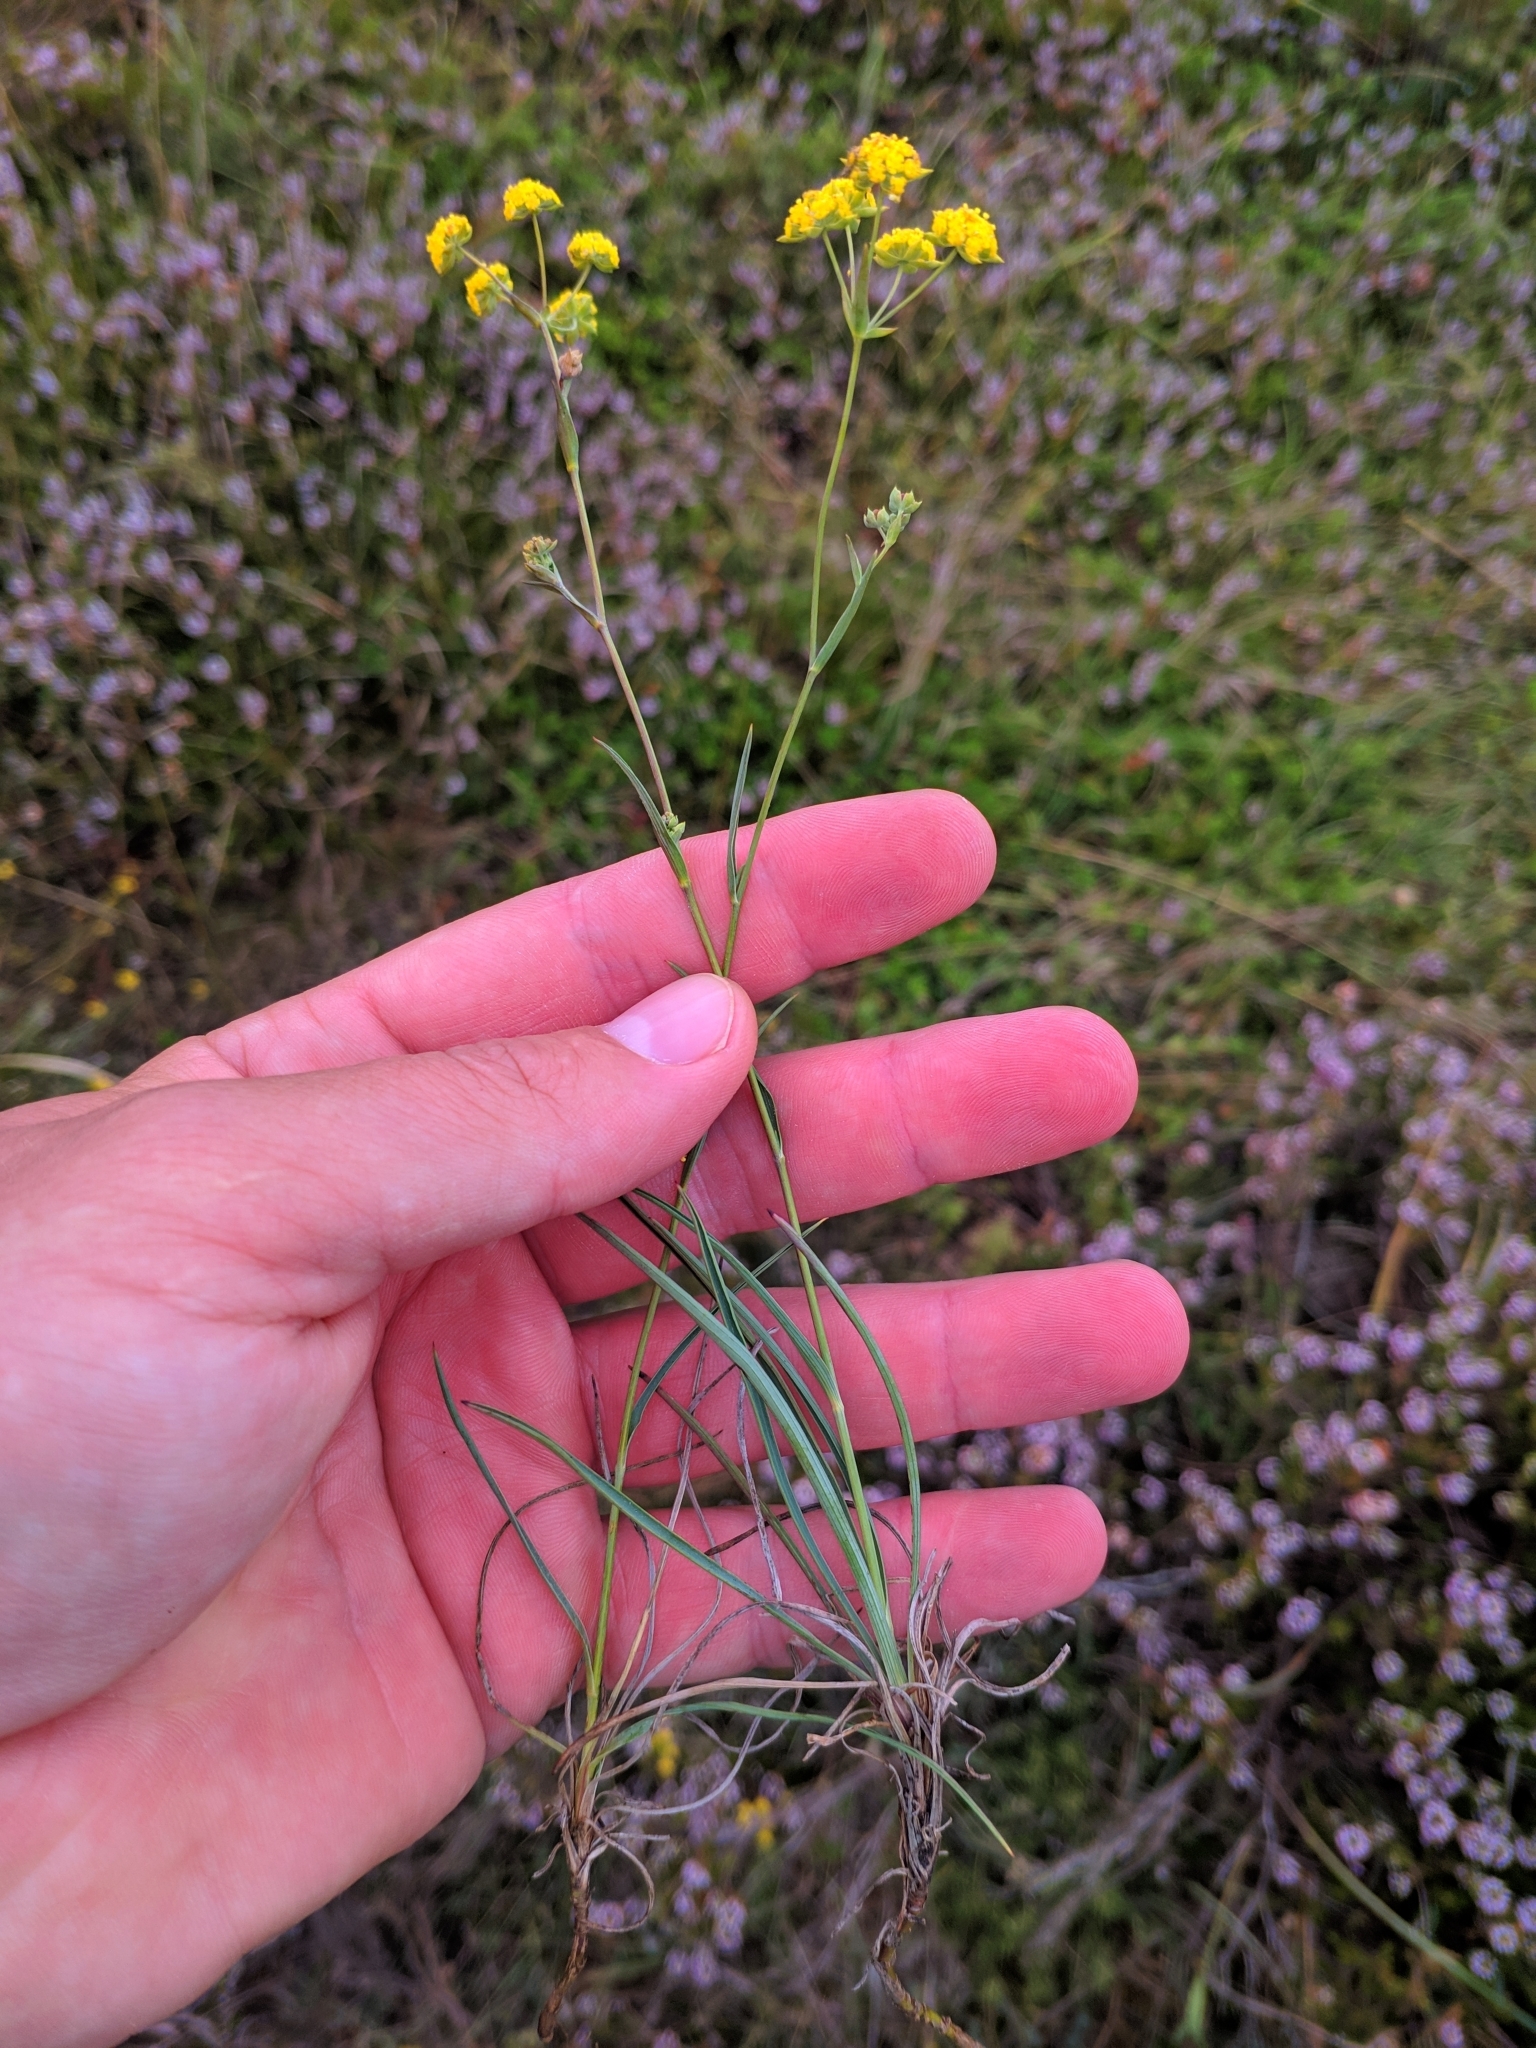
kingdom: Plantae
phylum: Tracheophyta
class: Magnoliopsida
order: Apiales
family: Apiaceae
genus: Bupleurum
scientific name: Bupleurum ranunculoides
